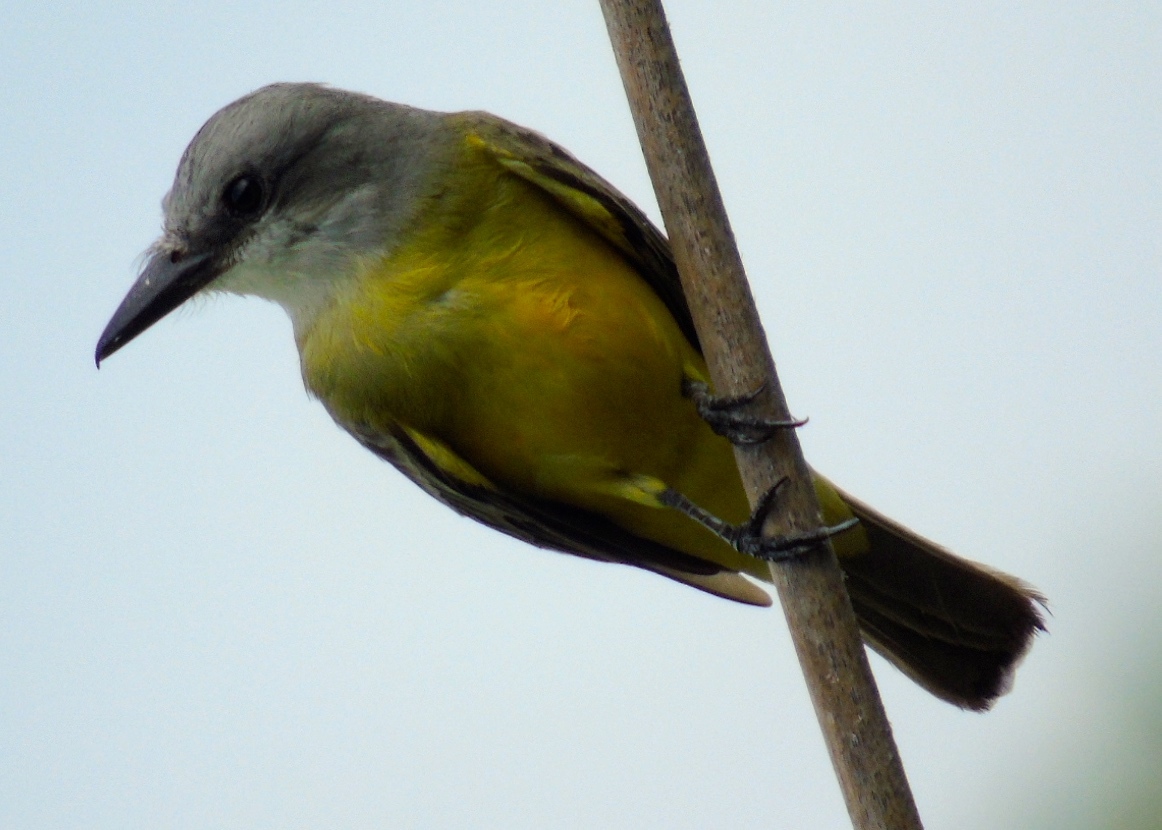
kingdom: Animalia
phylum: Chordata
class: Aves
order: Passeriformes
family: Tyrannidae
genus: Tyrannus
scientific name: Tyrannus melancholicus
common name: Tropical kingbird
